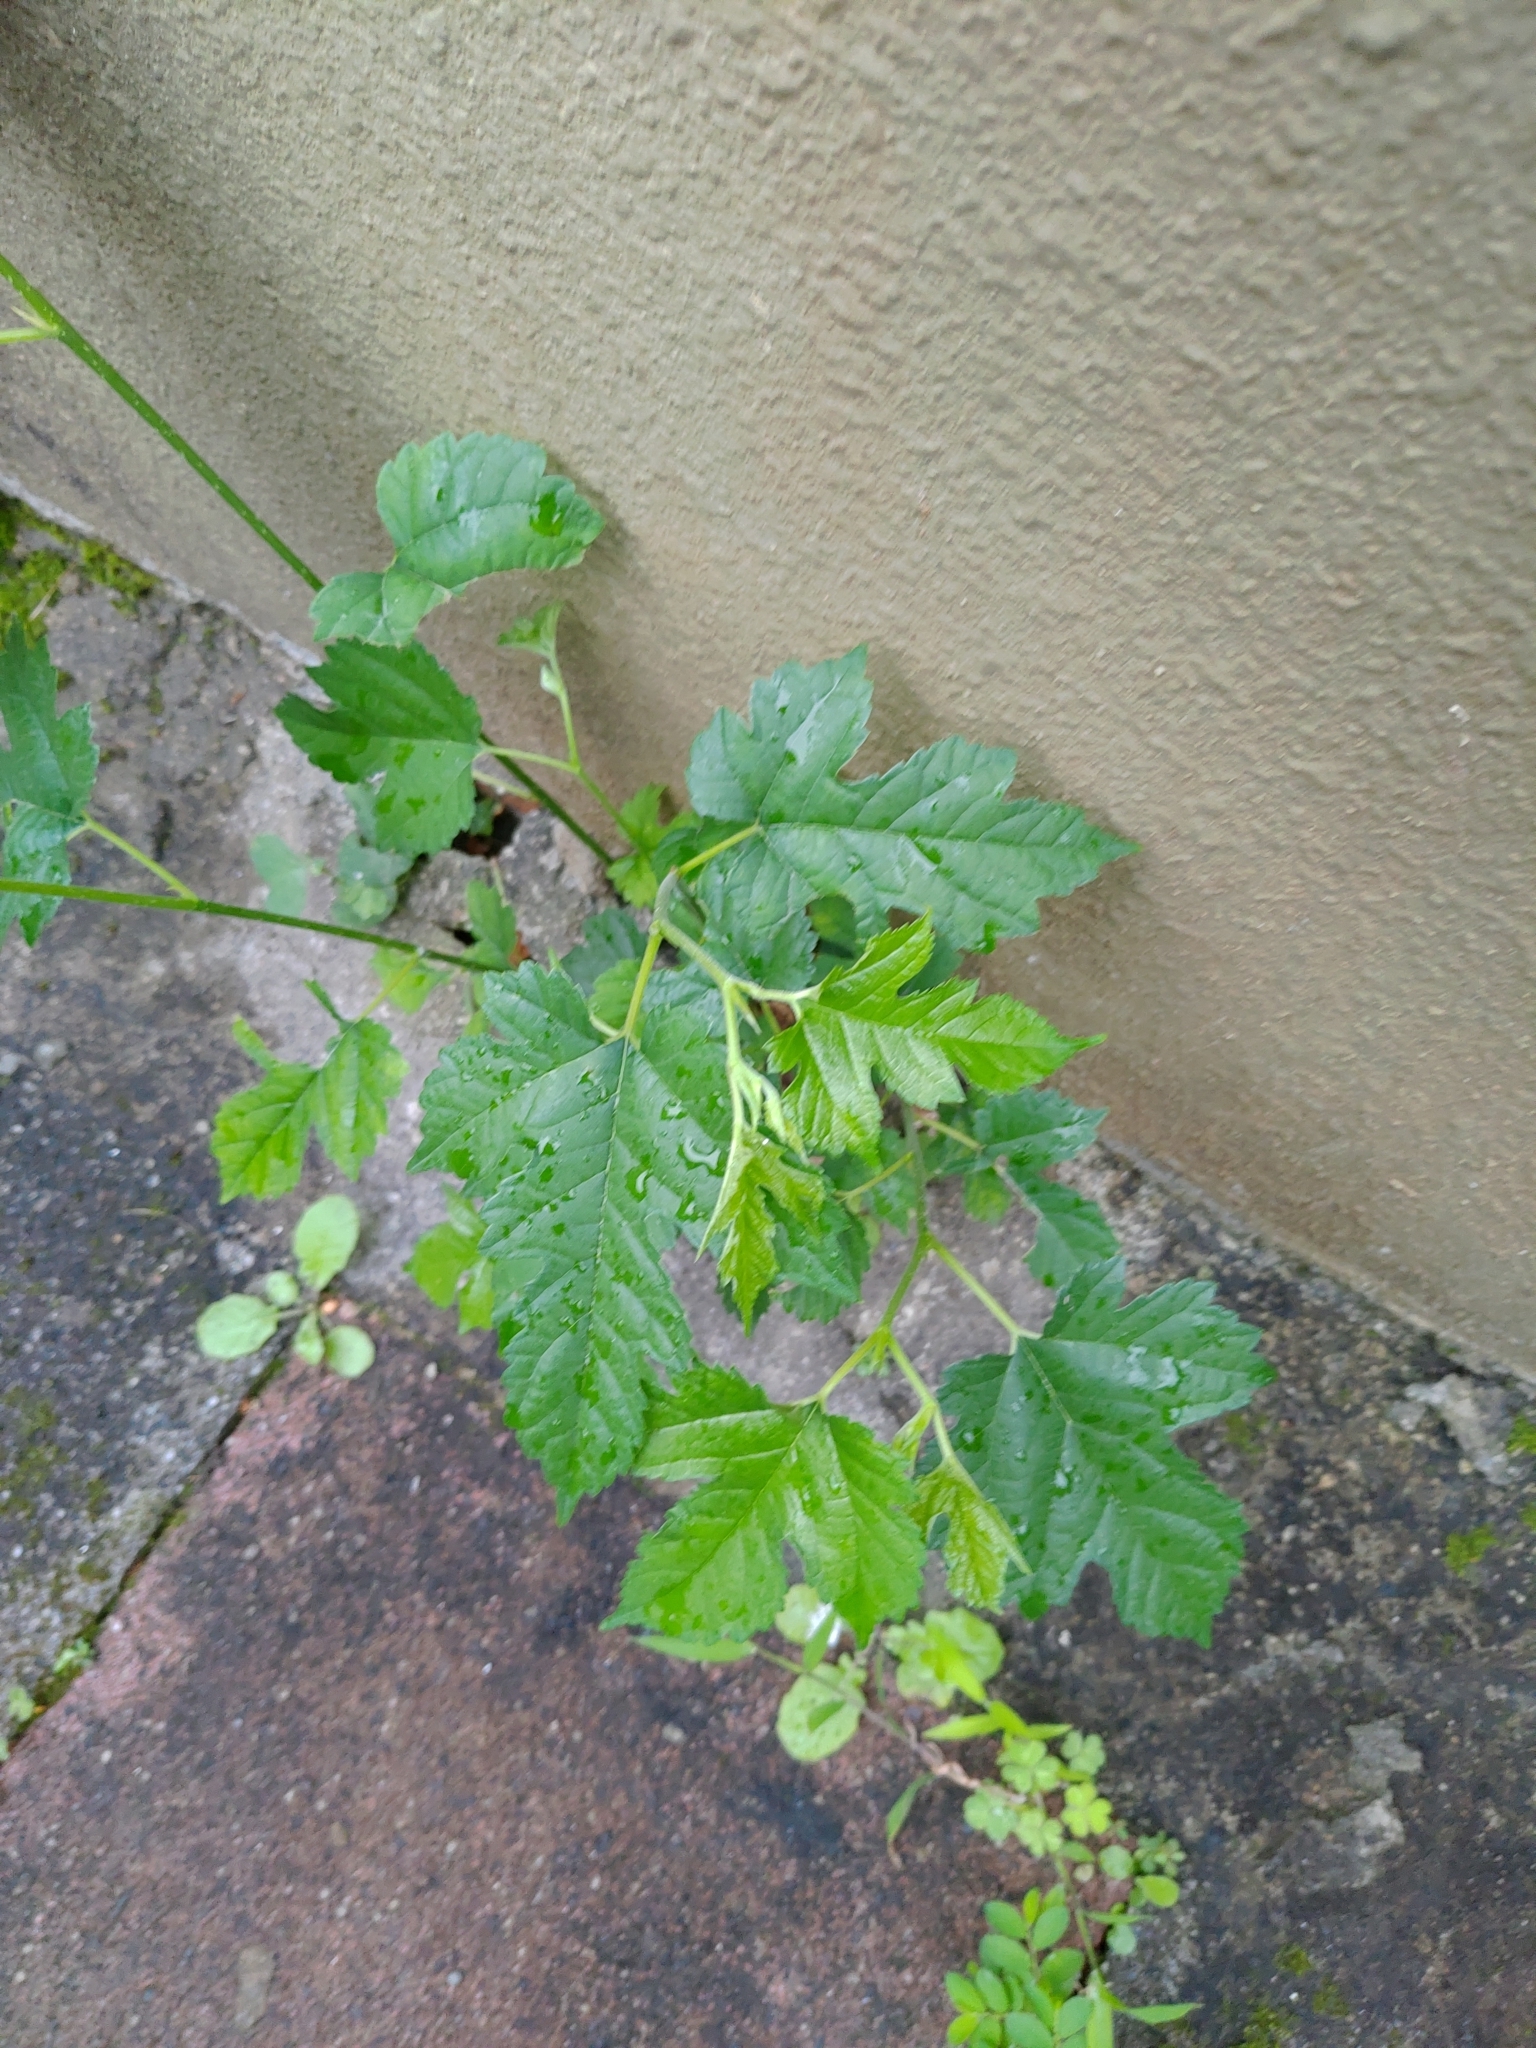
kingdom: Plantae
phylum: Tracheophyta
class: Magnoliopsida
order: Rosales
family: Moraceae
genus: Morus
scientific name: Morus indica
